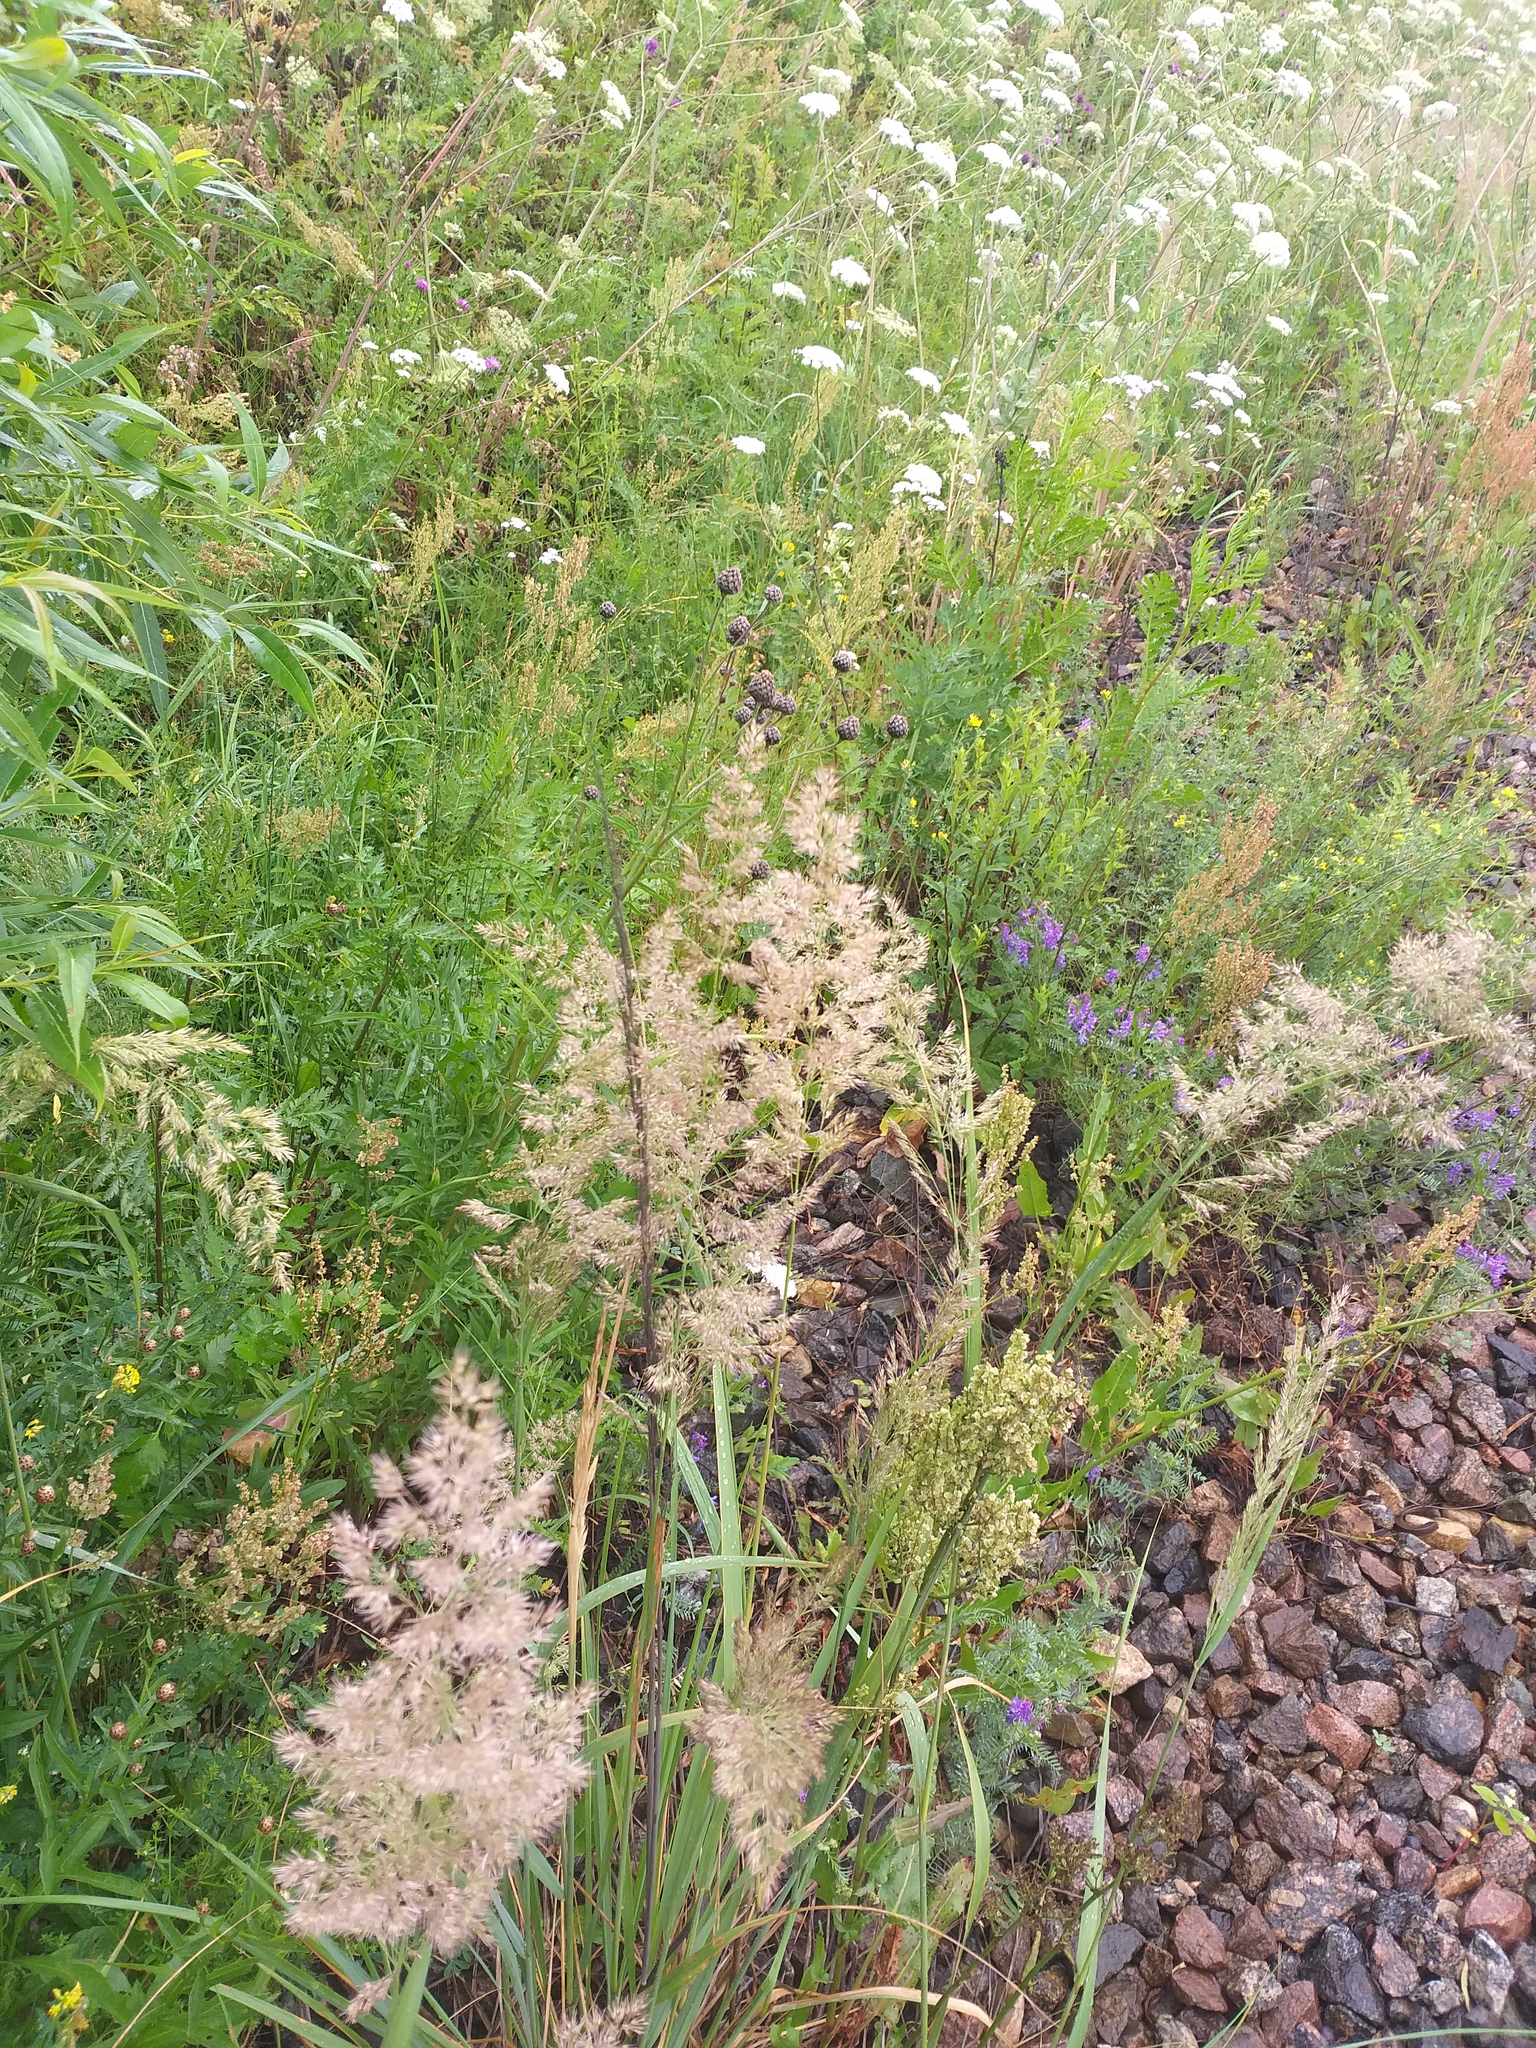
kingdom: Plantae
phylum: Tracheophyta
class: Liliopsida
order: Poales
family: Poaceae
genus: Calamagrostis
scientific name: Calamagrostis epigejos
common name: Wood small-reed
